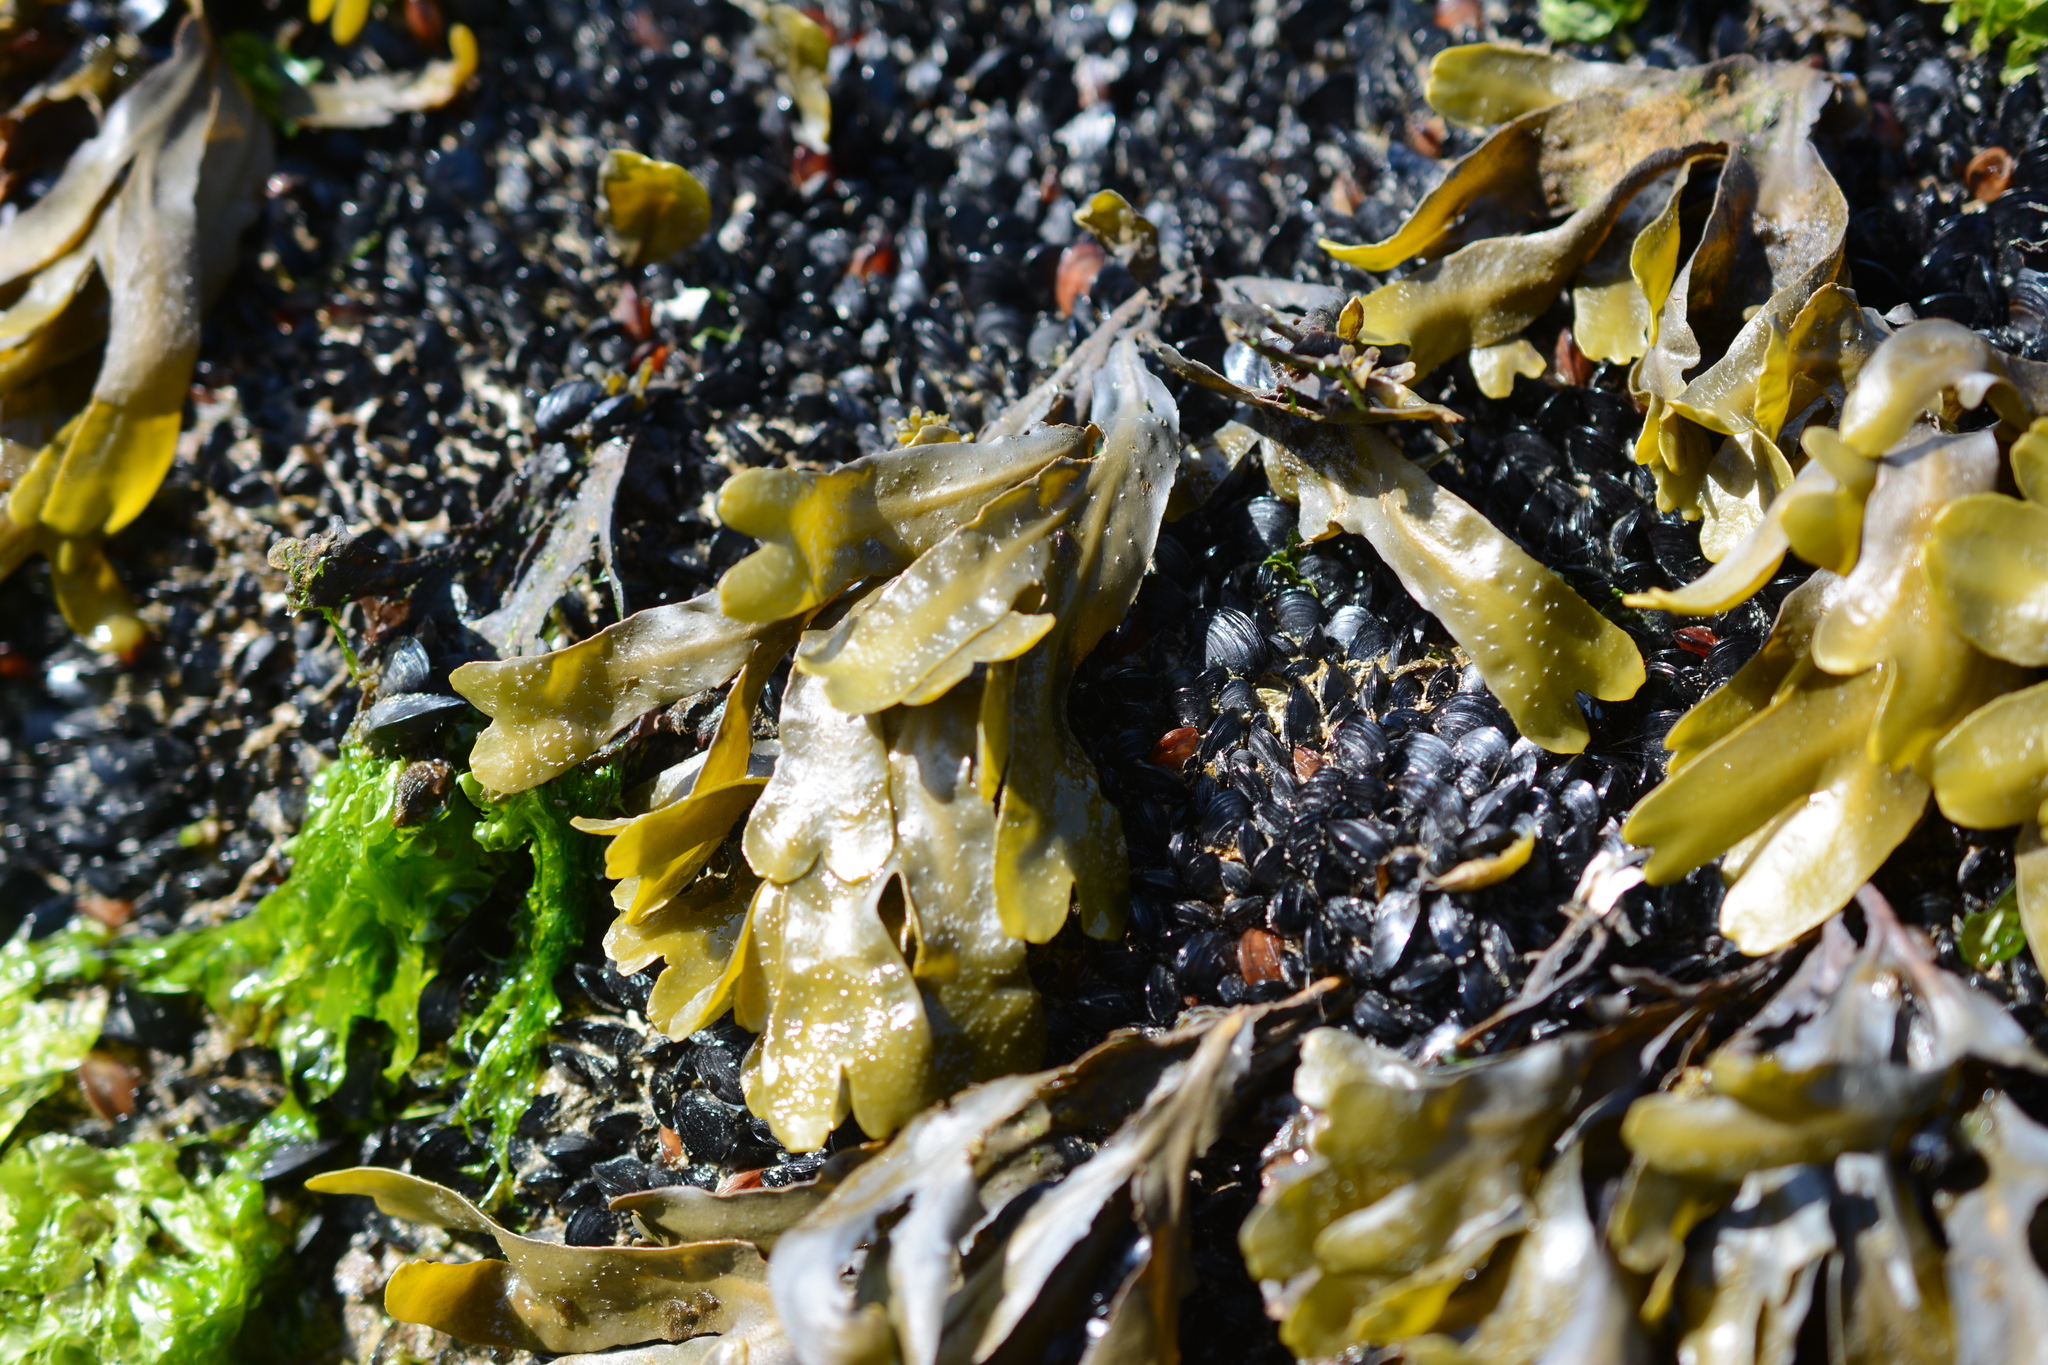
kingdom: Chromista
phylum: Ochrophyta
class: Phaeophyceae
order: Fucales
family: Fucaceae
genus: Fucus
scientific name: Fucus distichus
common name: Rockweed
